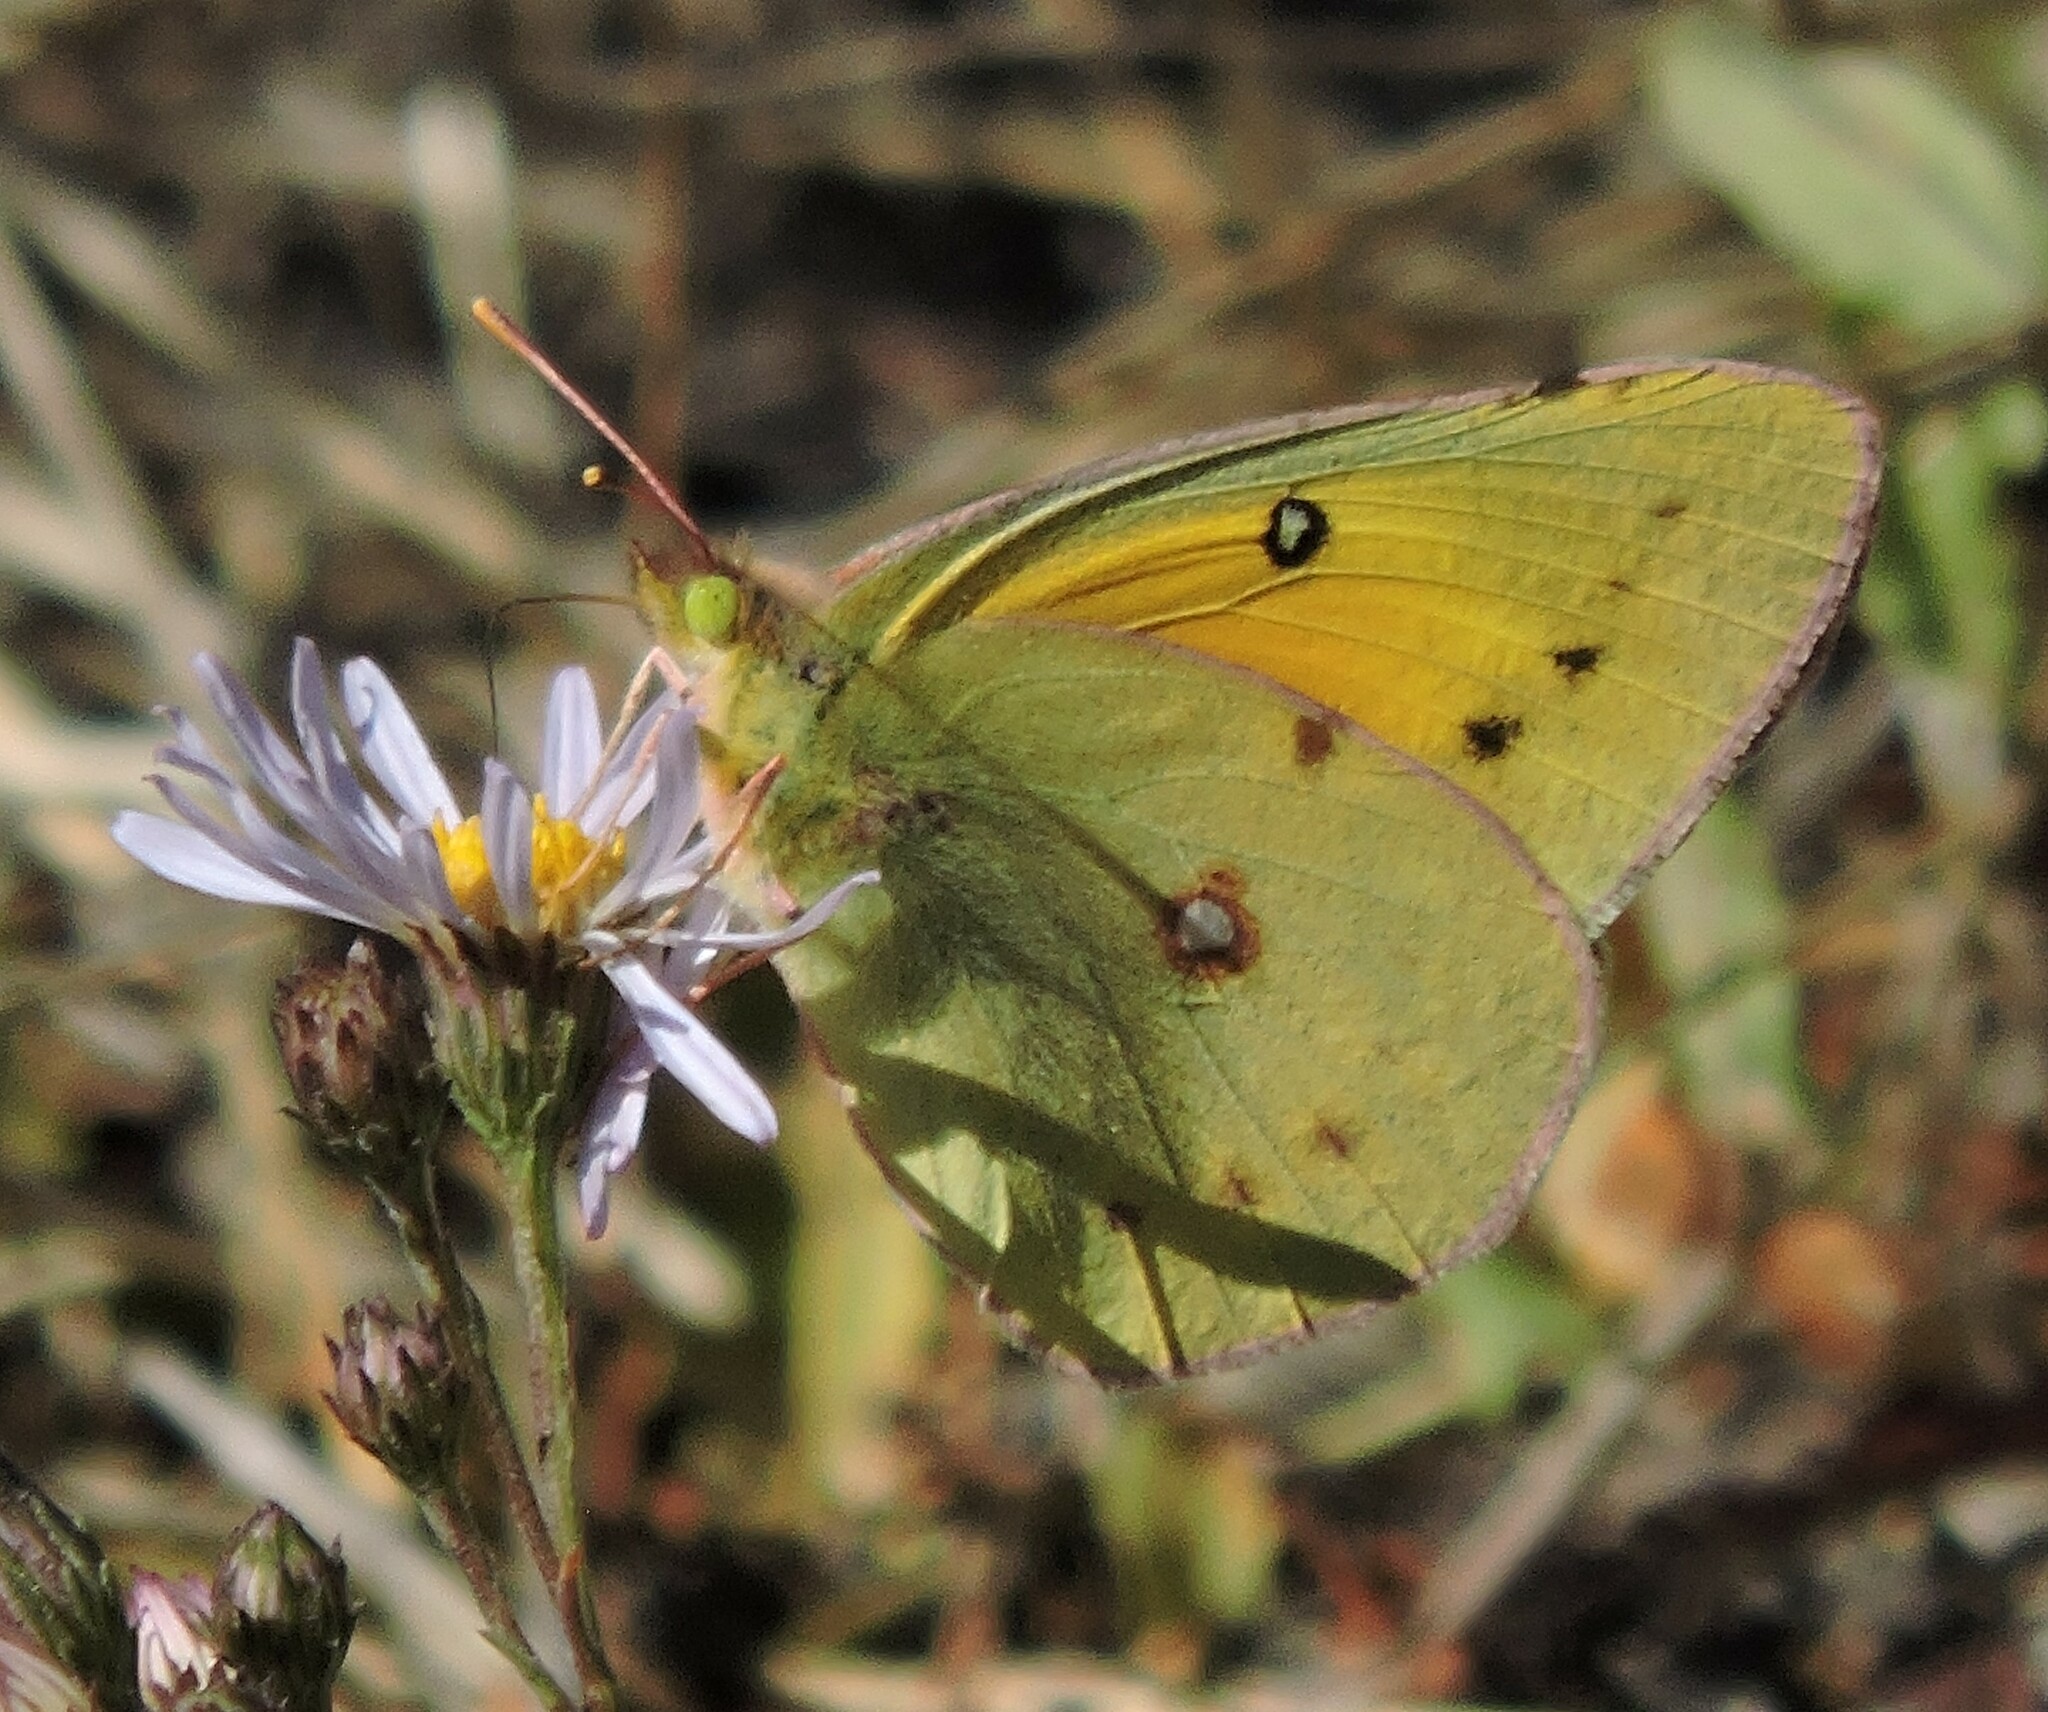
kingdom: Animalia
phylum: Arthropoda
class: Insecta
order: Lepidoptera
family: Pieridae
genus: Colias
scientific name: Colias eurytheme
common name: Alfalfa butterfly
